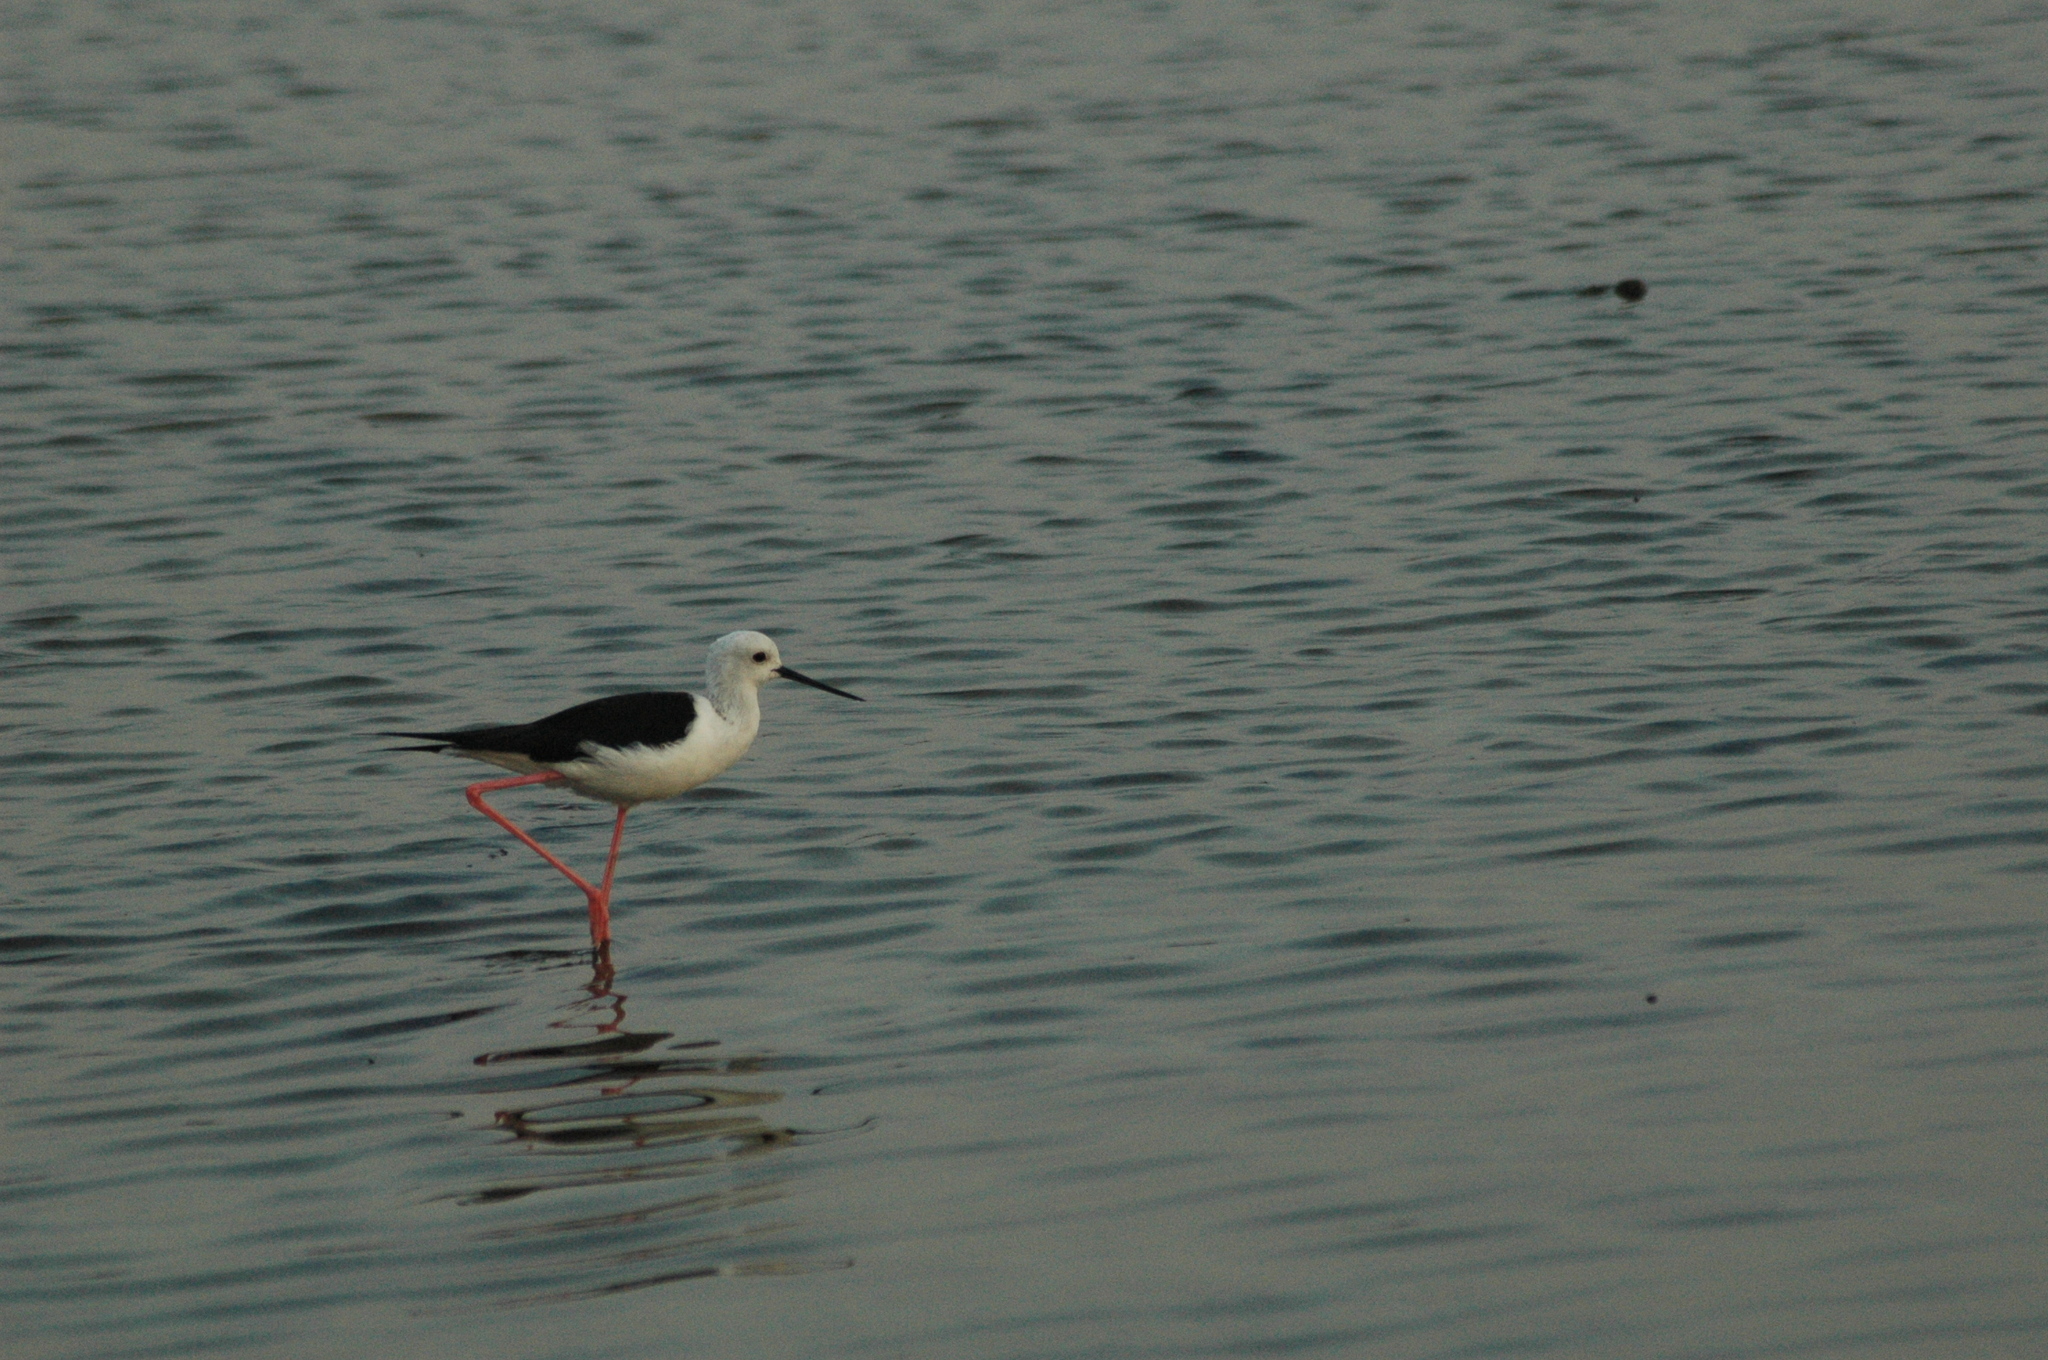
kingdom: Animalia
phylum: Chordata
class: Aves
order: Charadriiformes
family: Recurvirostridae
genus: Himantopus
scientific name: Himantopus himantopus
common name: Black-winged stilt
